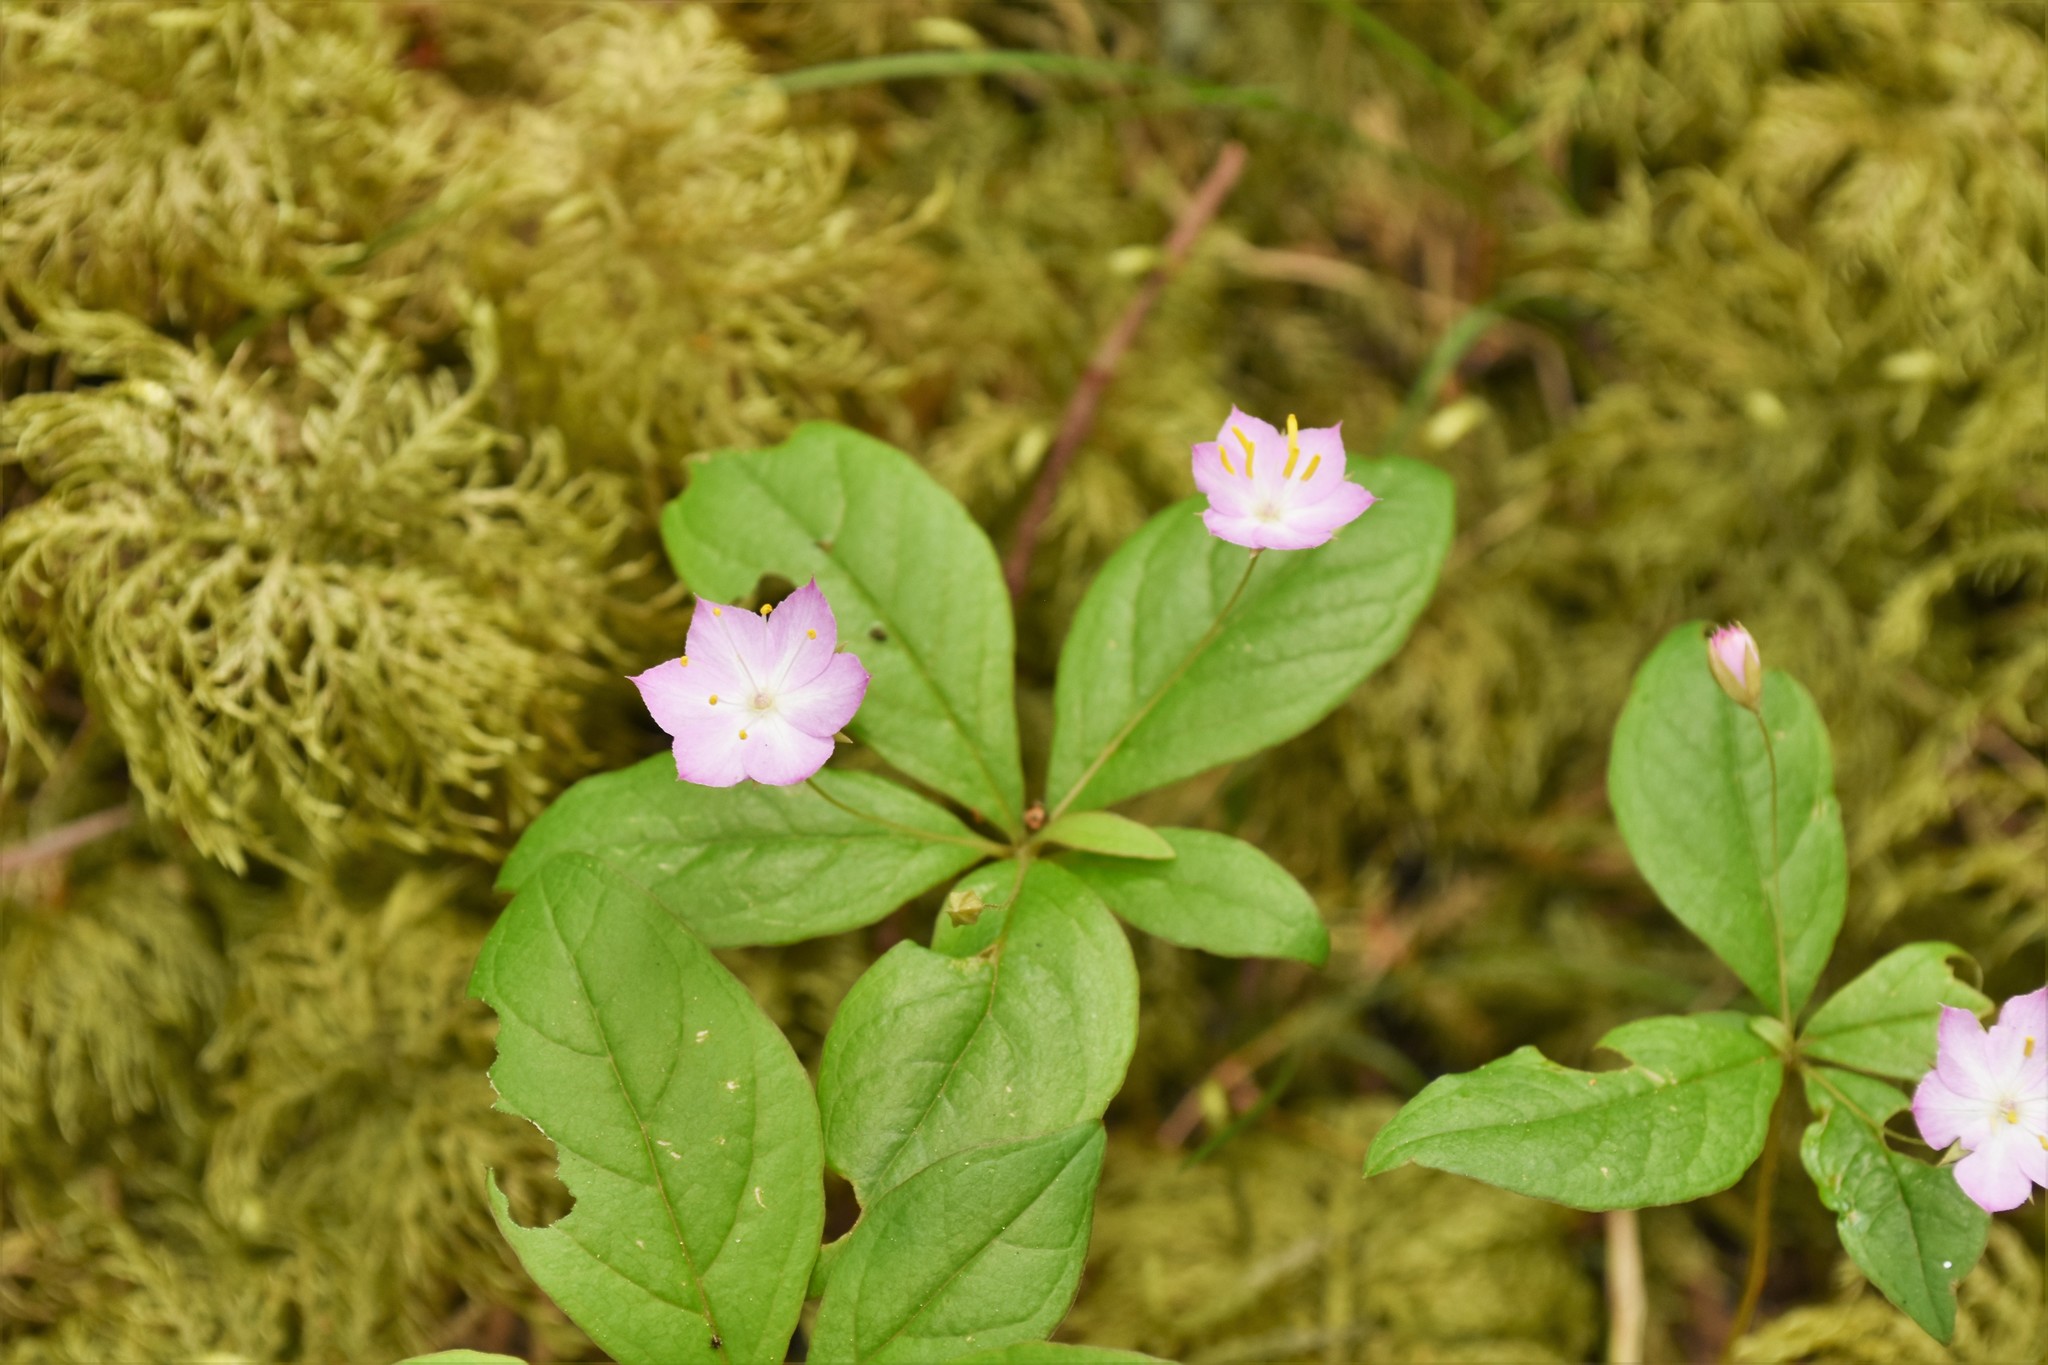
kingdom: Plantae
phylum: Tracheophyta
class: Magnoliopsida
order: Ericales
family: Primulaceae
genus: Lysimachia
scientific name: Lysimachia latifolia
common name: Pacific starflower
